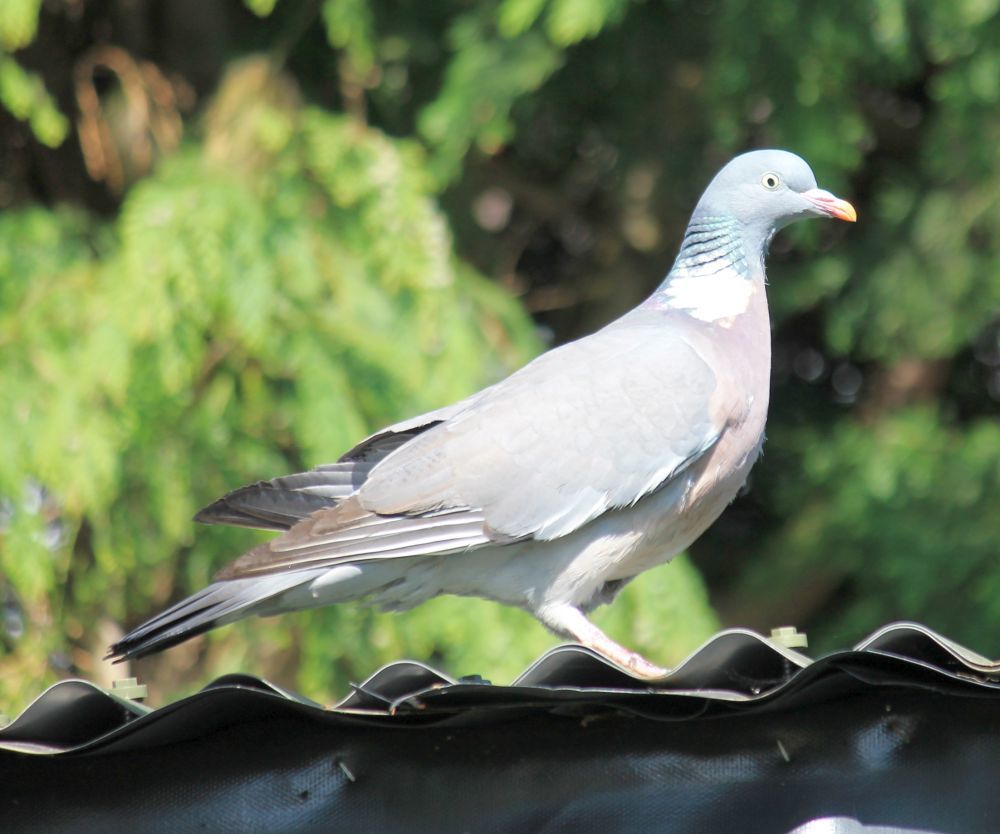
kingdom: Animalia
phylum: Chordata
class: Aves
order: Columbiformes
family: Columbidae
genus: Columba
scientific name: Columba palumbus
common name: Common wood pigeon
